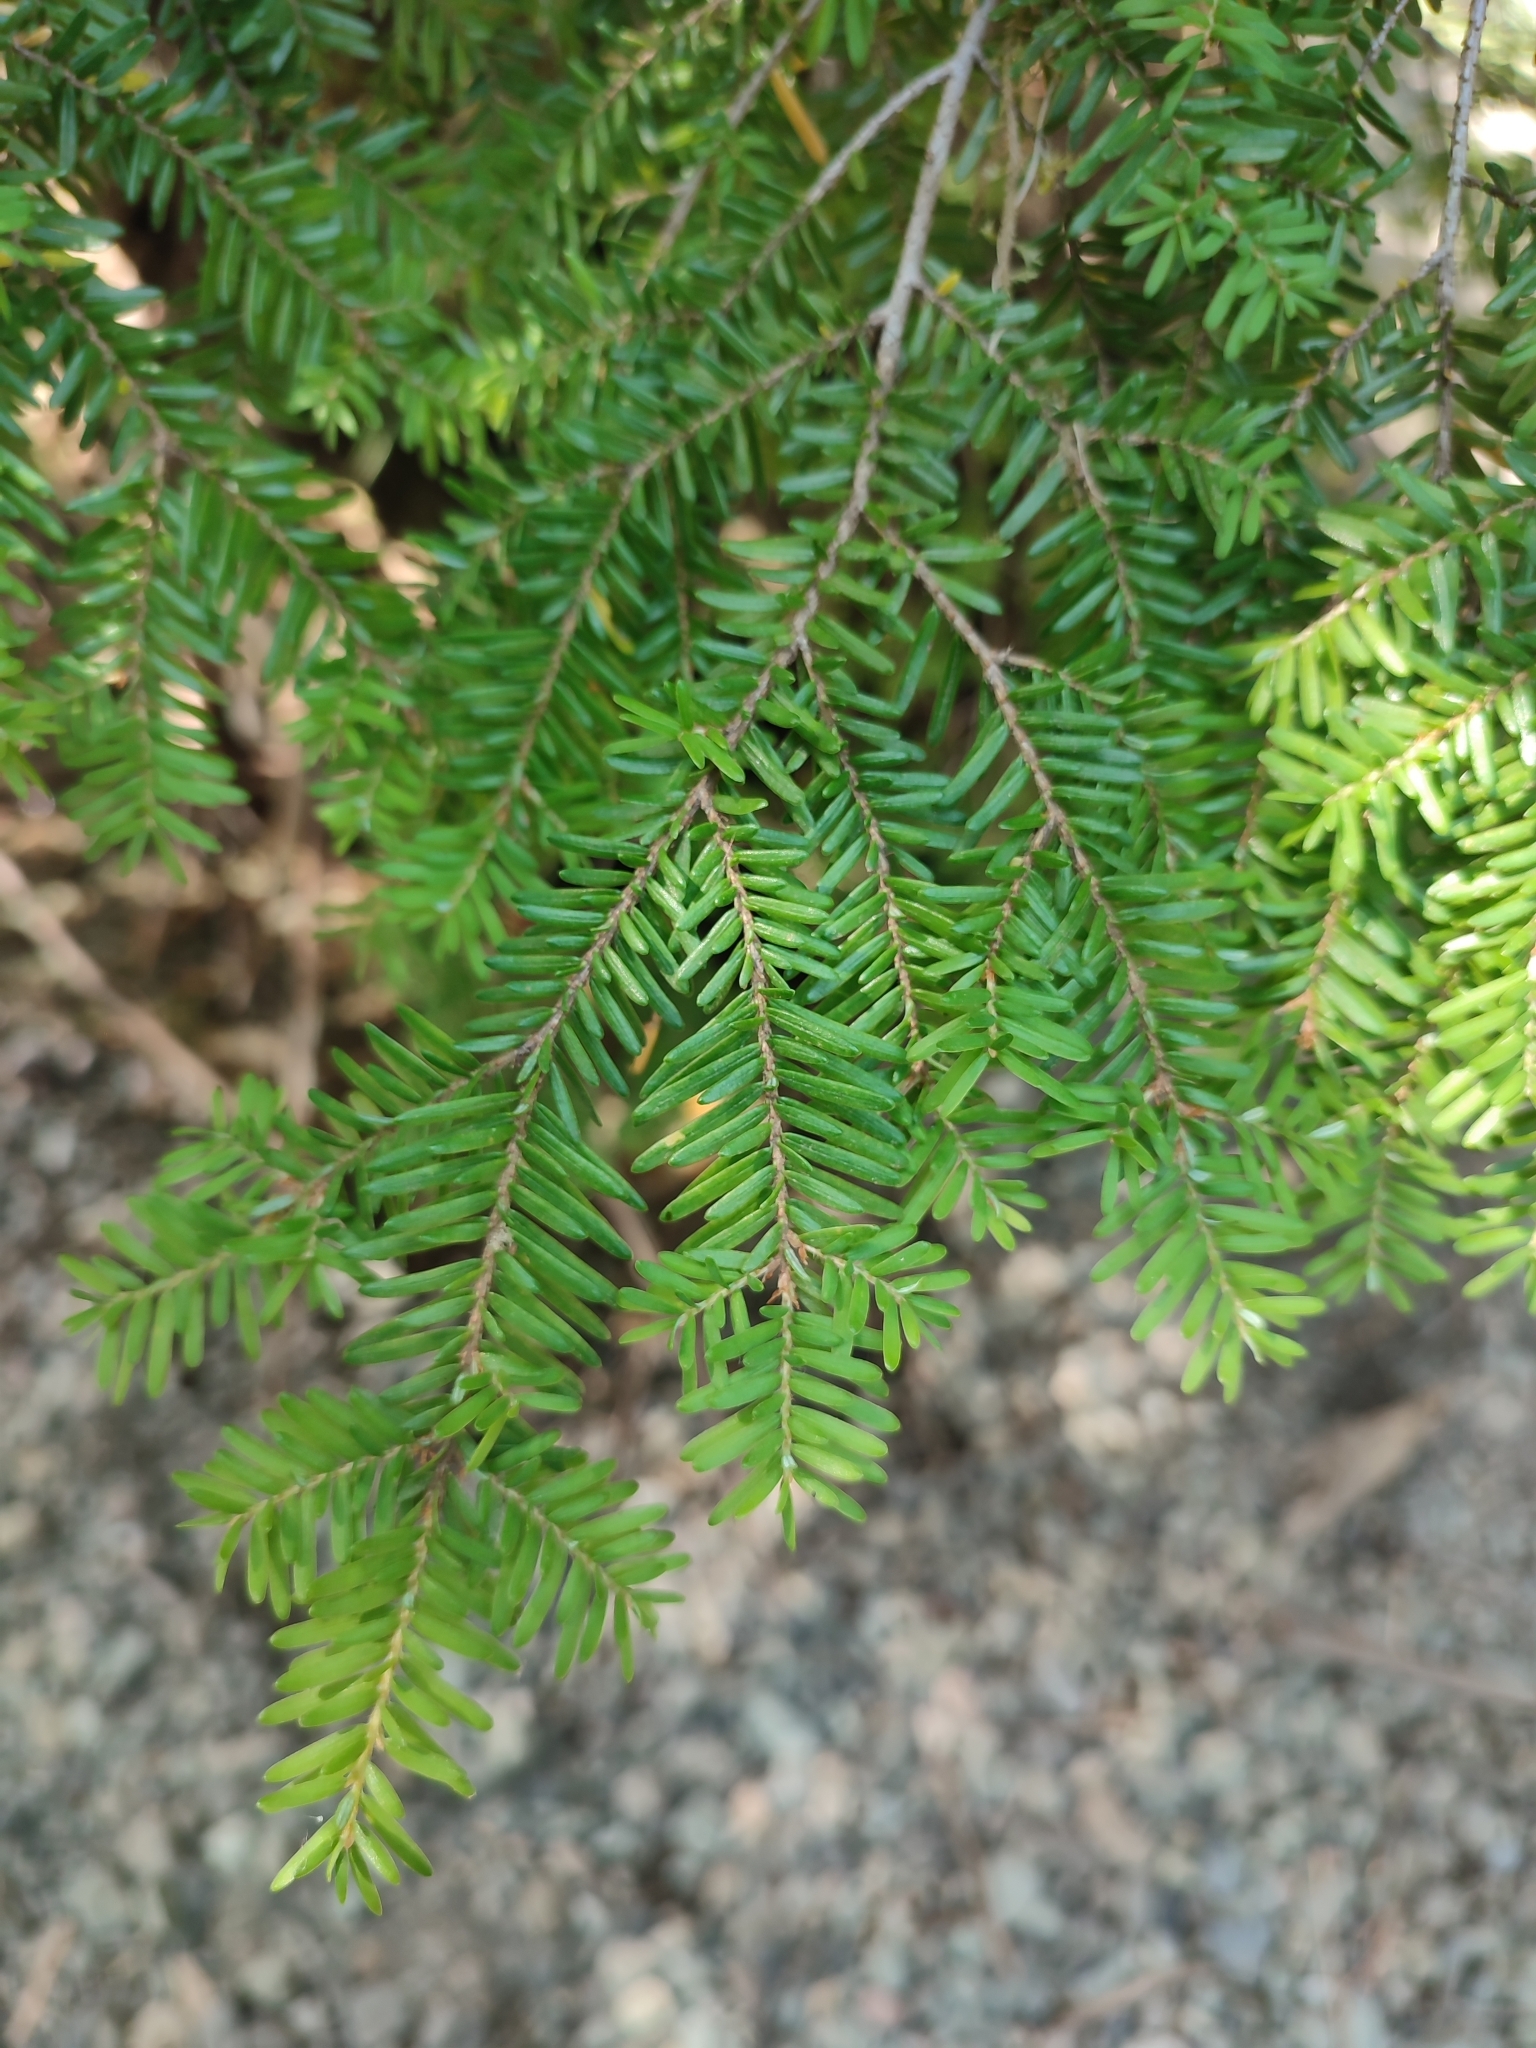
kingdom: Plantae
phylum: Tracheophyta
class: Pinopsida
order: Pinales
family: Pinaceae
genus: Tsuga
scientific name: Tsuga heterophylla
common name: Western hemlock
